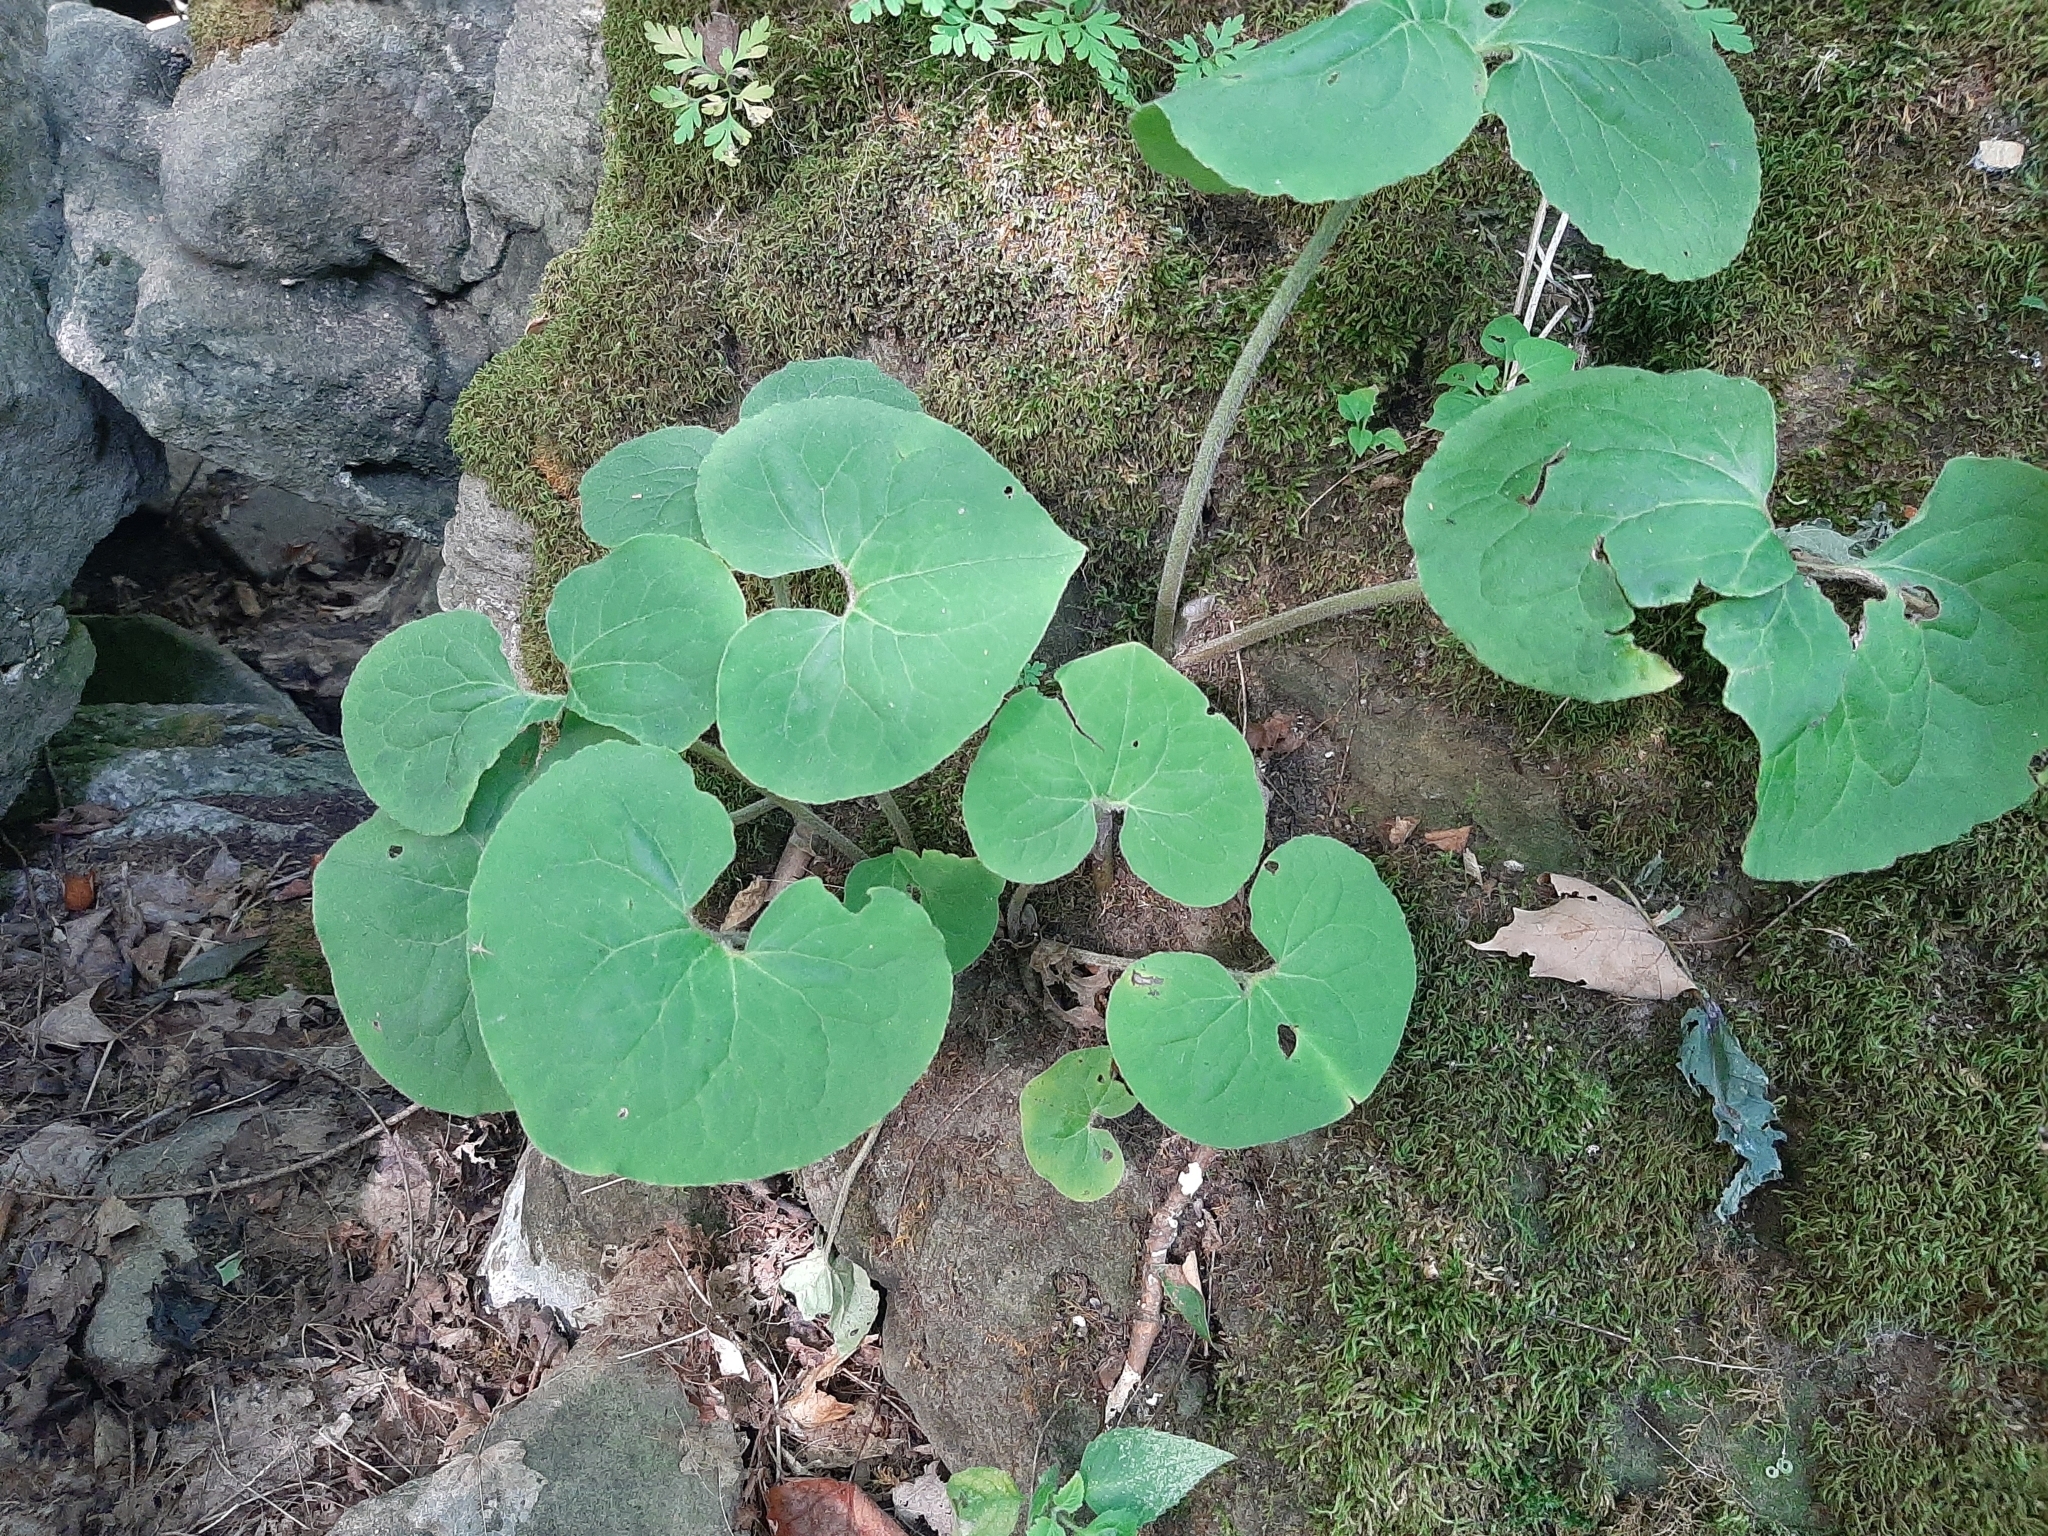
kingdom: Plantae
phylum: Tracheophyta
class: Magnoliopsida
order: Piperales
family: Aristolochiaceae
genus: Asarum
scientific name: Asarum canadense
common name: Wild ginger
